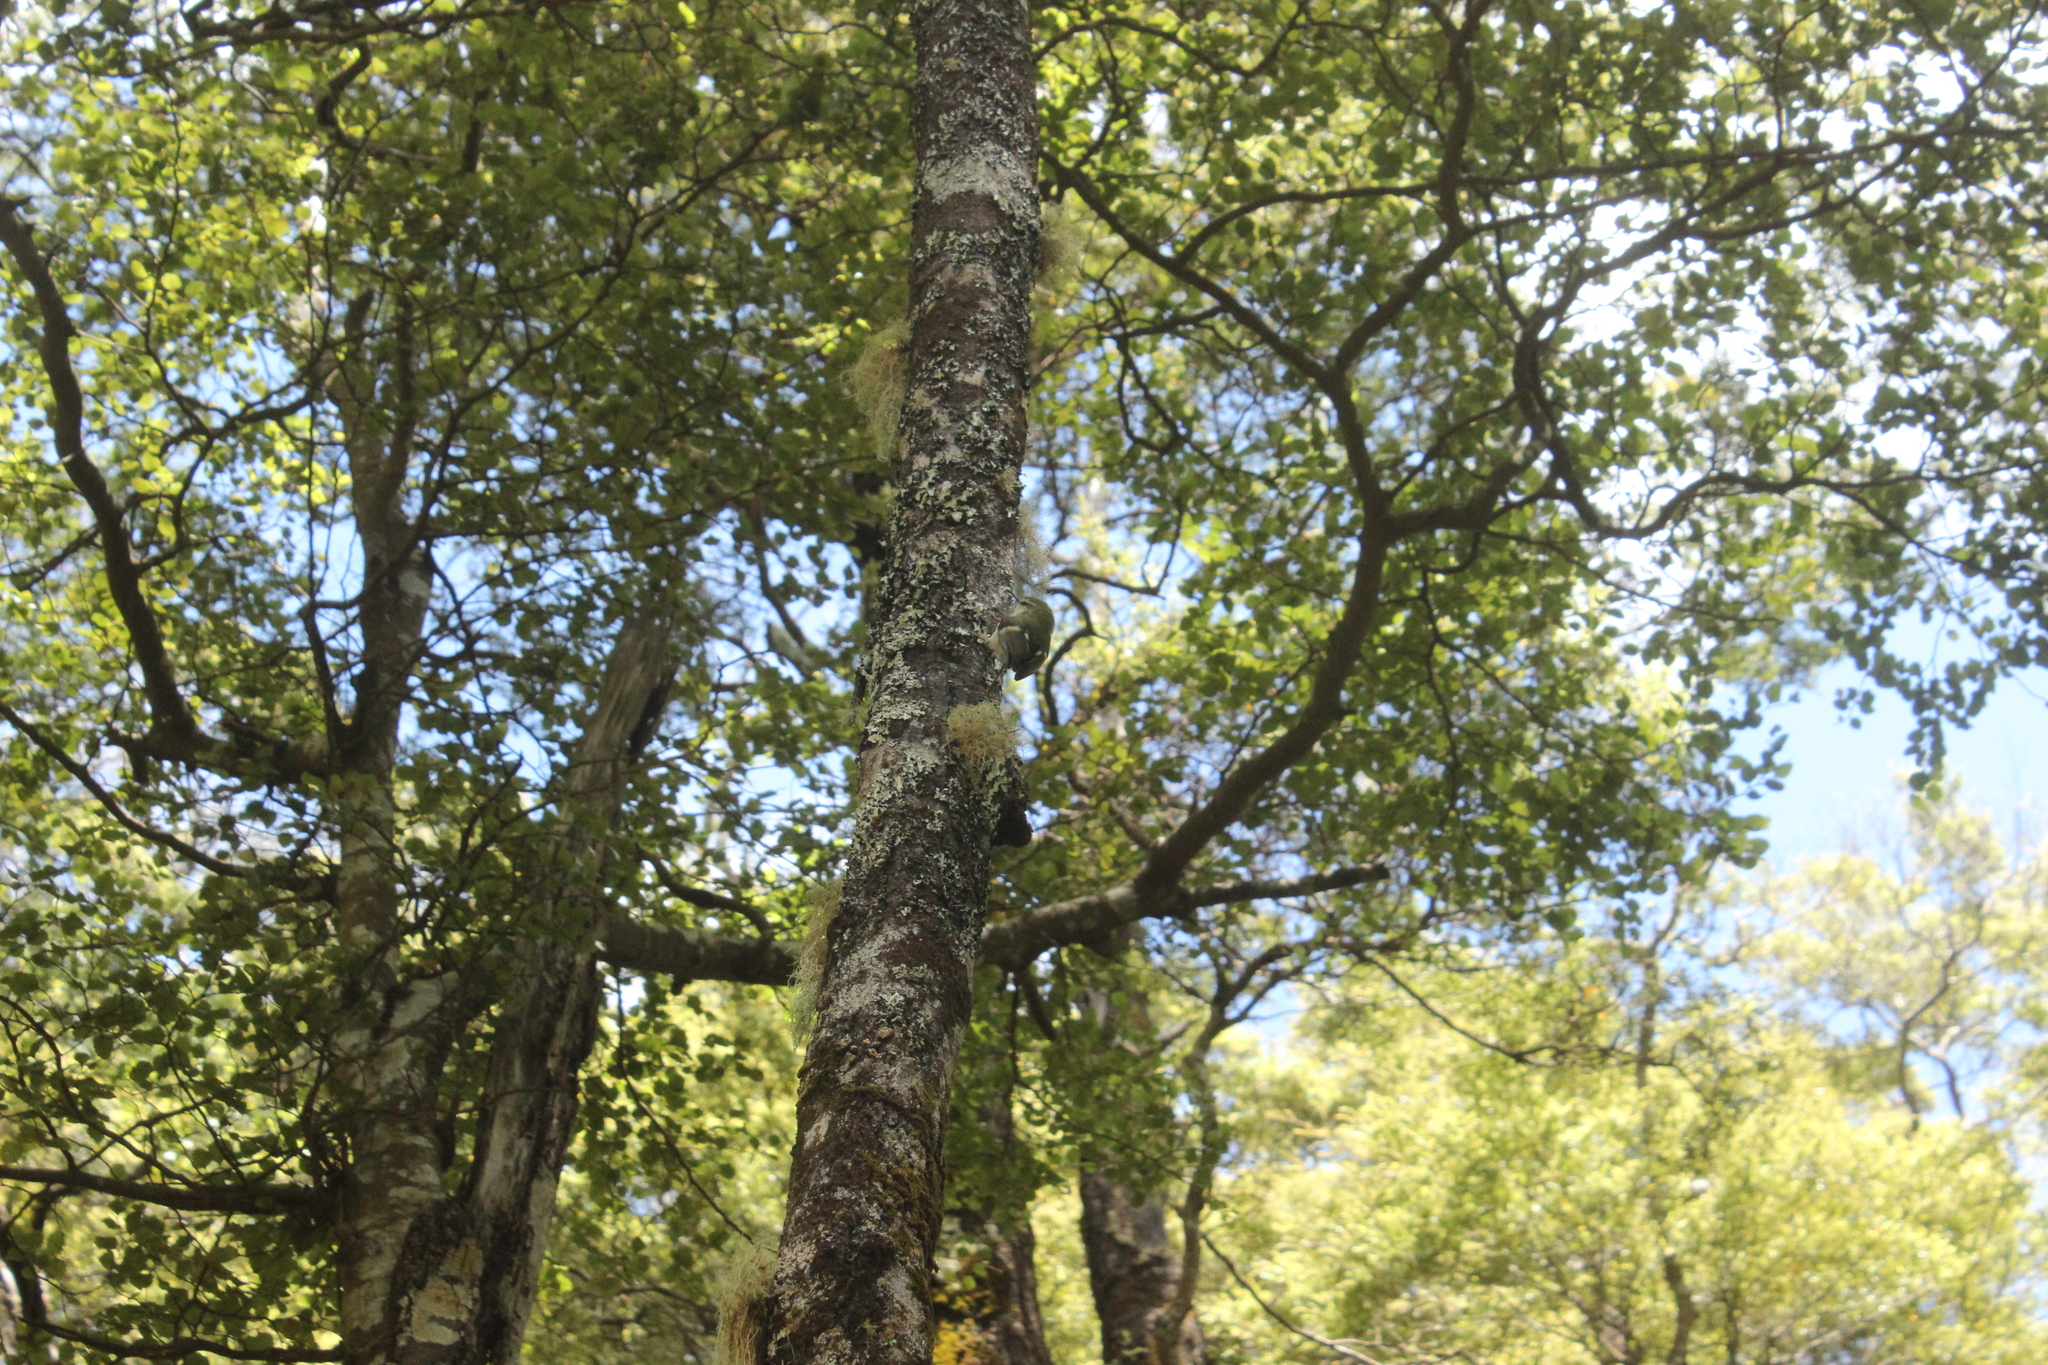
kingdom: Animalia
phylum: Chordata
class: Aves
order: Passeriformes
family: Acanthisittidae
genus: Acanthisitta
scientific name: Acanthisitta chloris
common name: Rifleman
